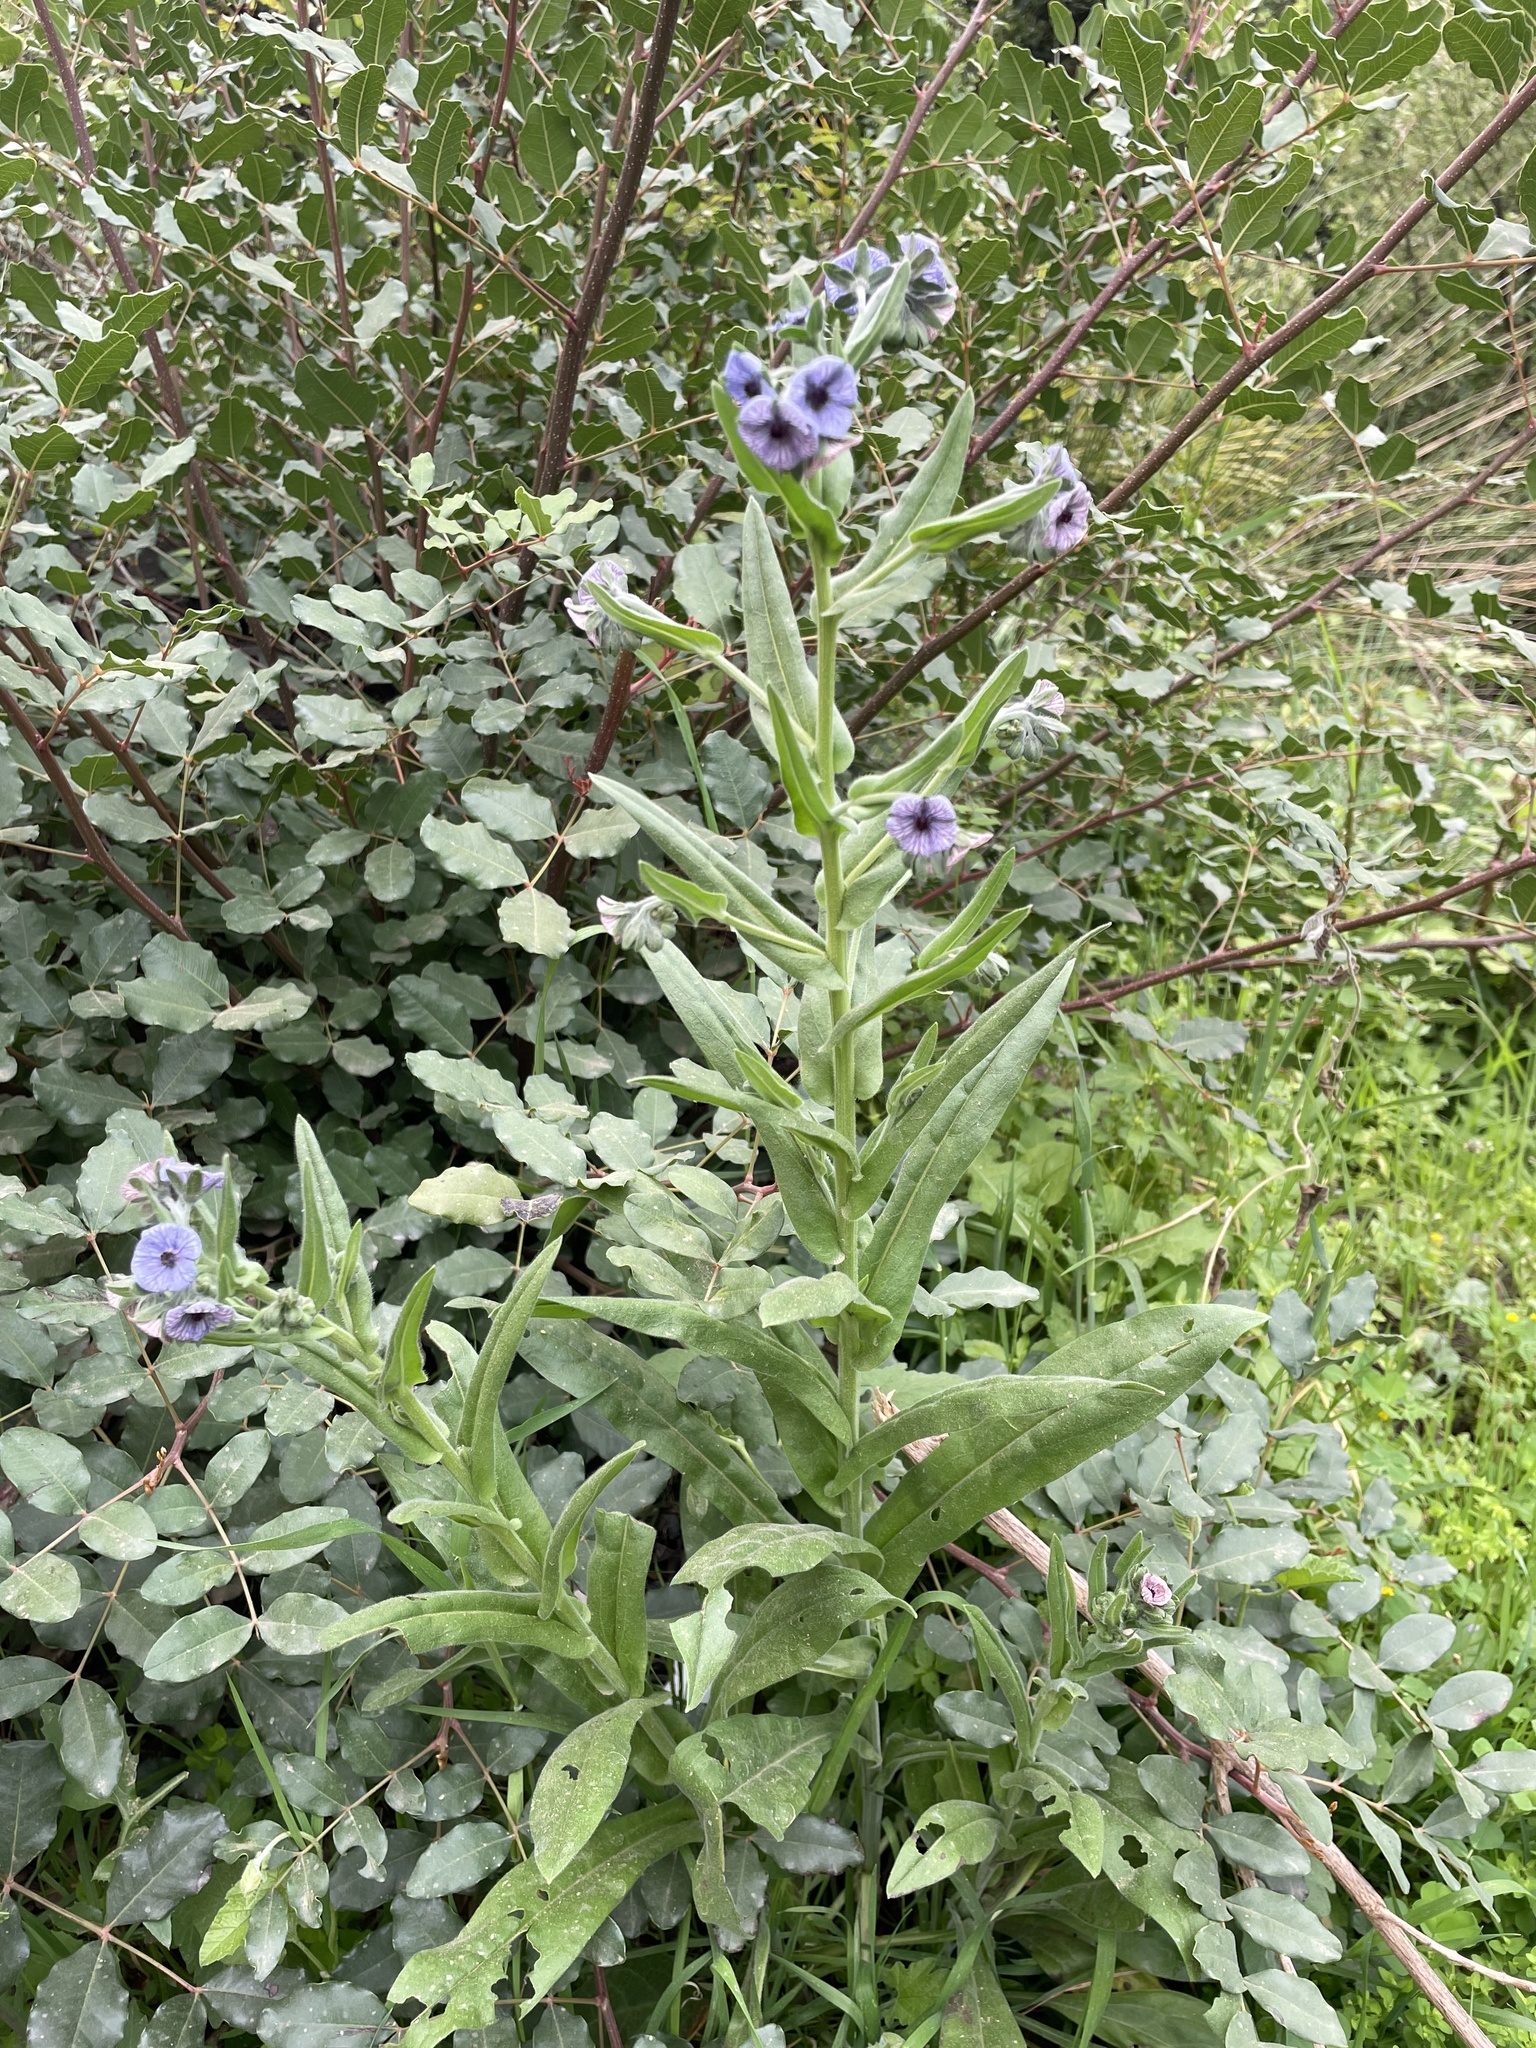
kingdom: Plantae
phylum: Tracheophyta
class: Magnoliopsida
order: Boraginales
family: Boraginaceae
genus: Cynoglossum
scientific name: Cynoglossum creticum
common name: Blue hound's tongue
